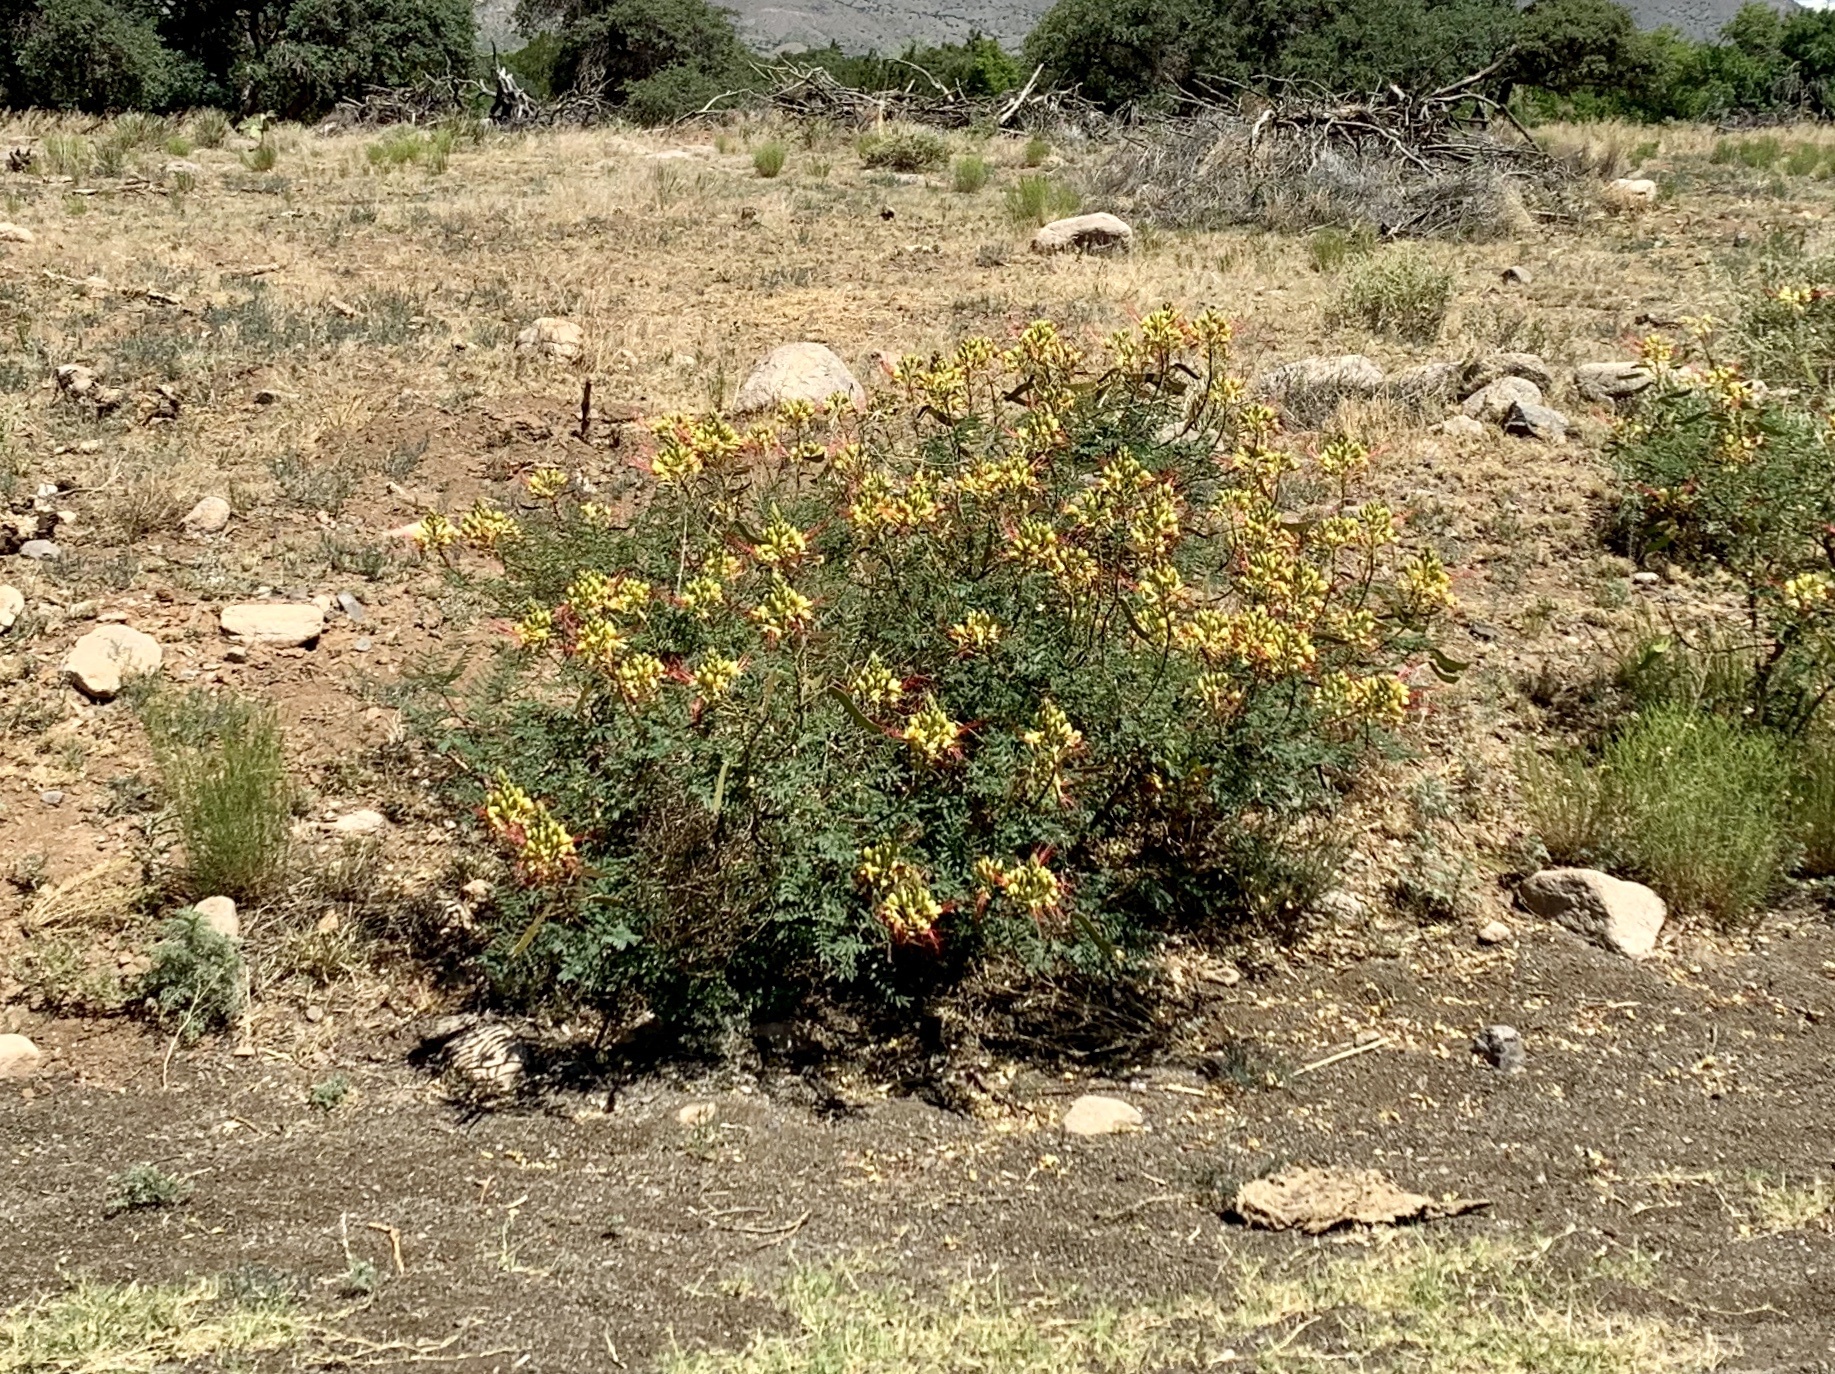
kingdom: Plantae
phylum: Tracheophyta
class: Magnoliopsida
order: Fabales
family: Fabaceae
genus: Erythrostemon
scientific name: Erythrostemon gilliesii
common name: Bird-of-paradise shrub
